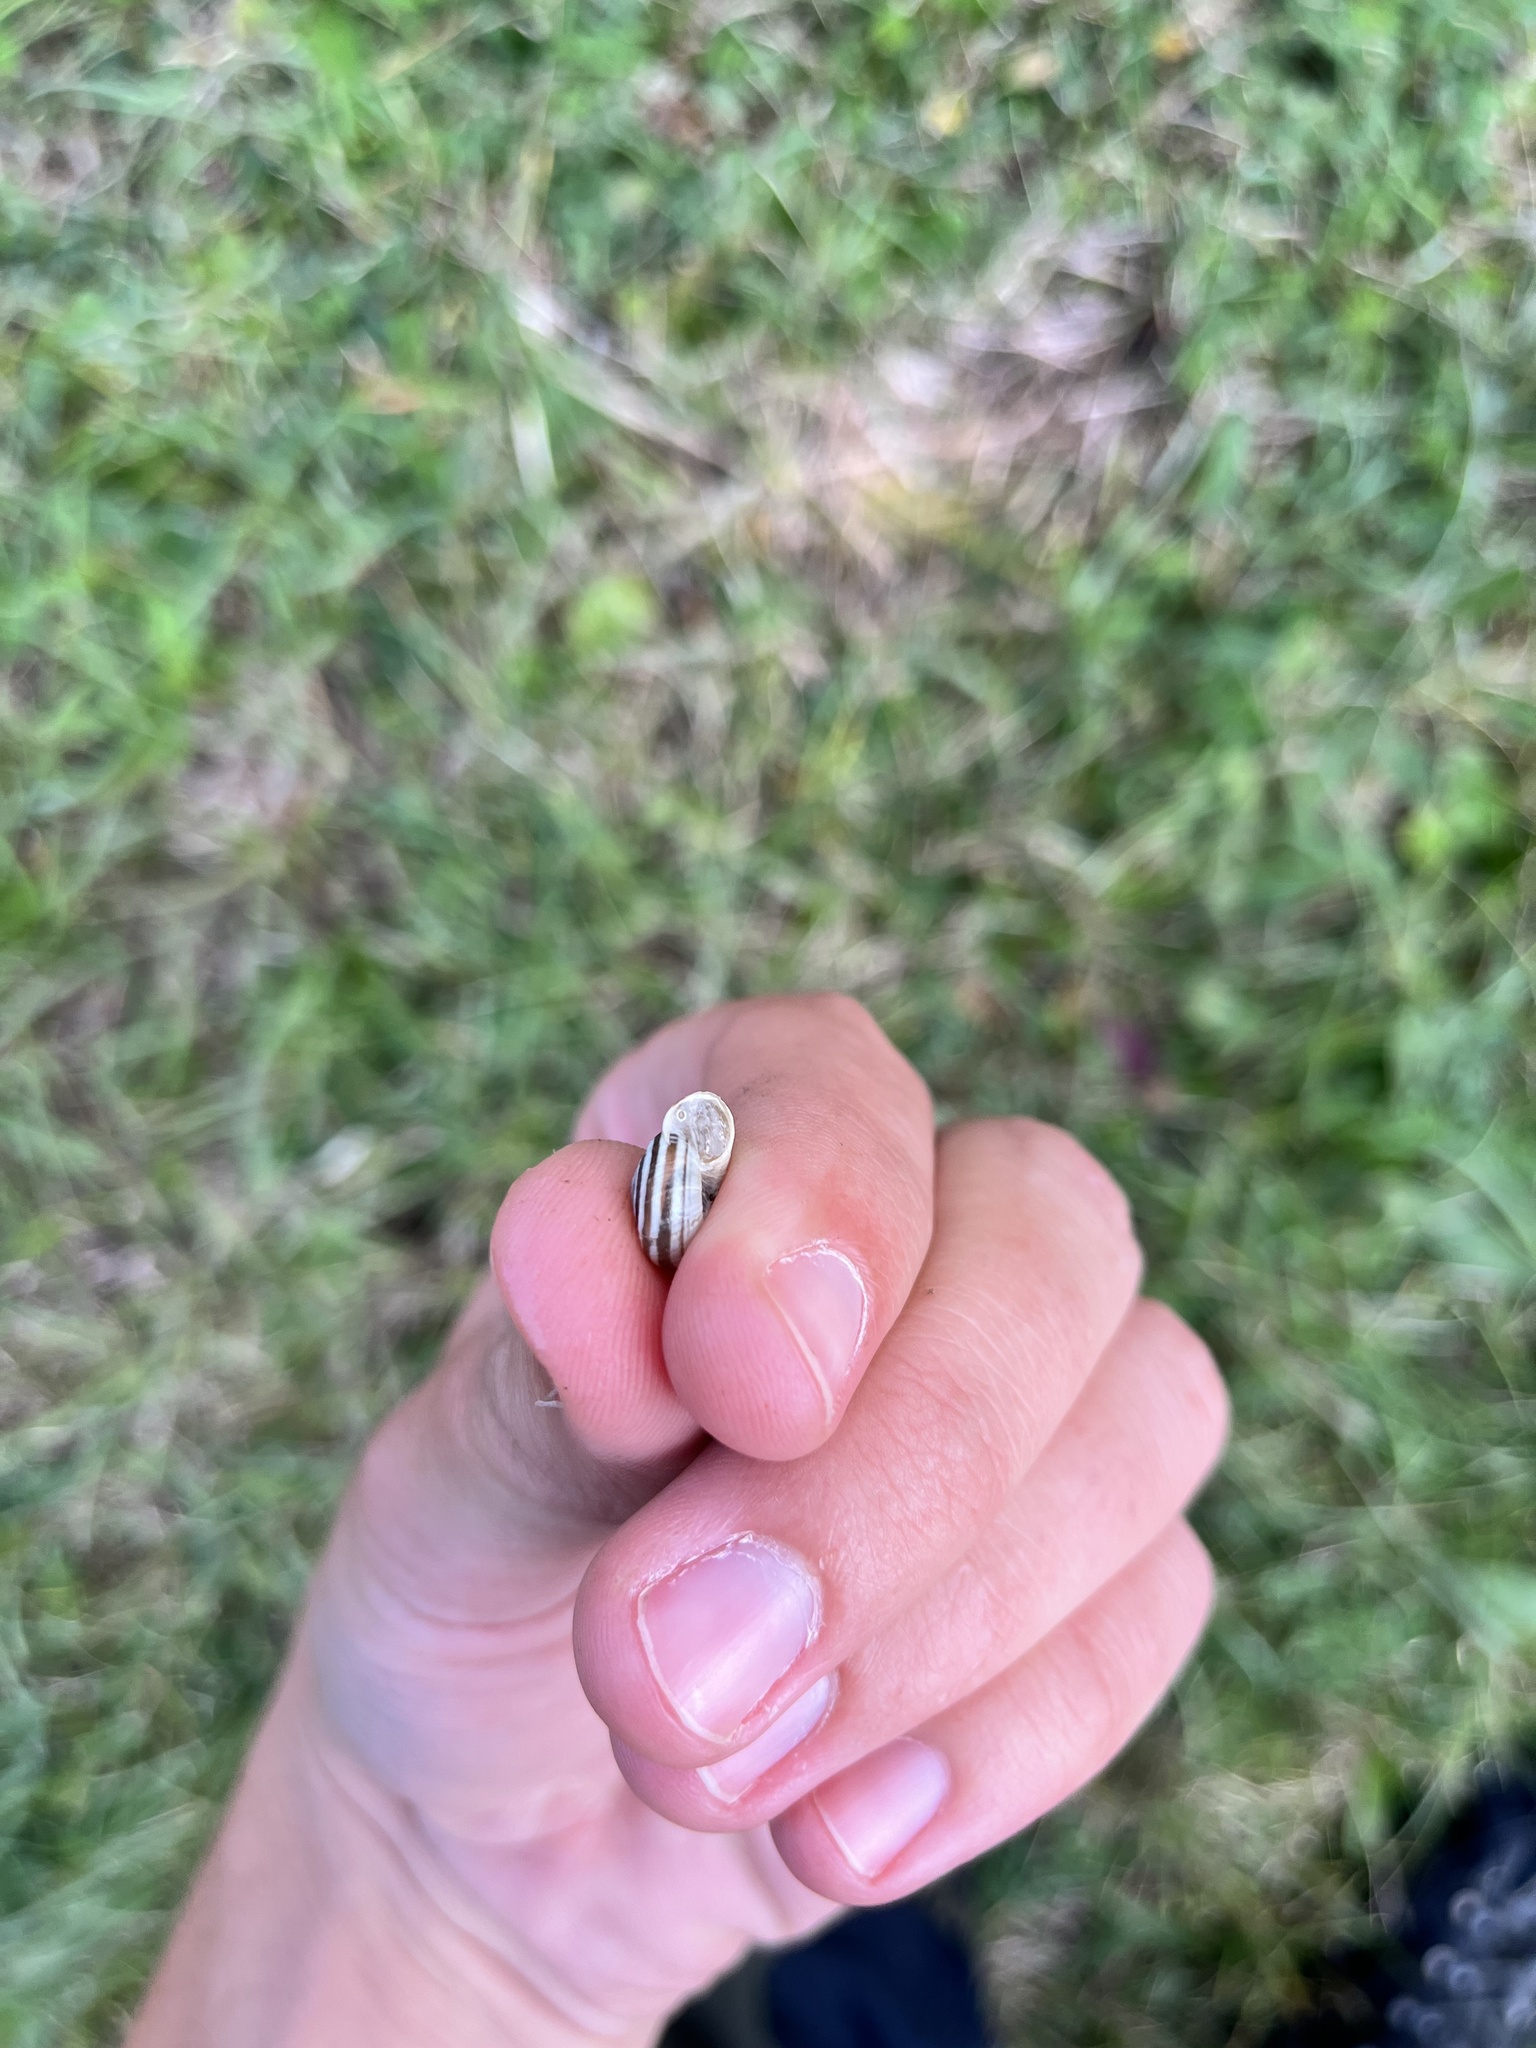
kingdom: Animalia
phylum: Mollusca
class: Gastropoda
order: Stylommatophora
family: Geomitridae
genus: Helicella
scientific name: Helicella itala
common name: Heath snail
